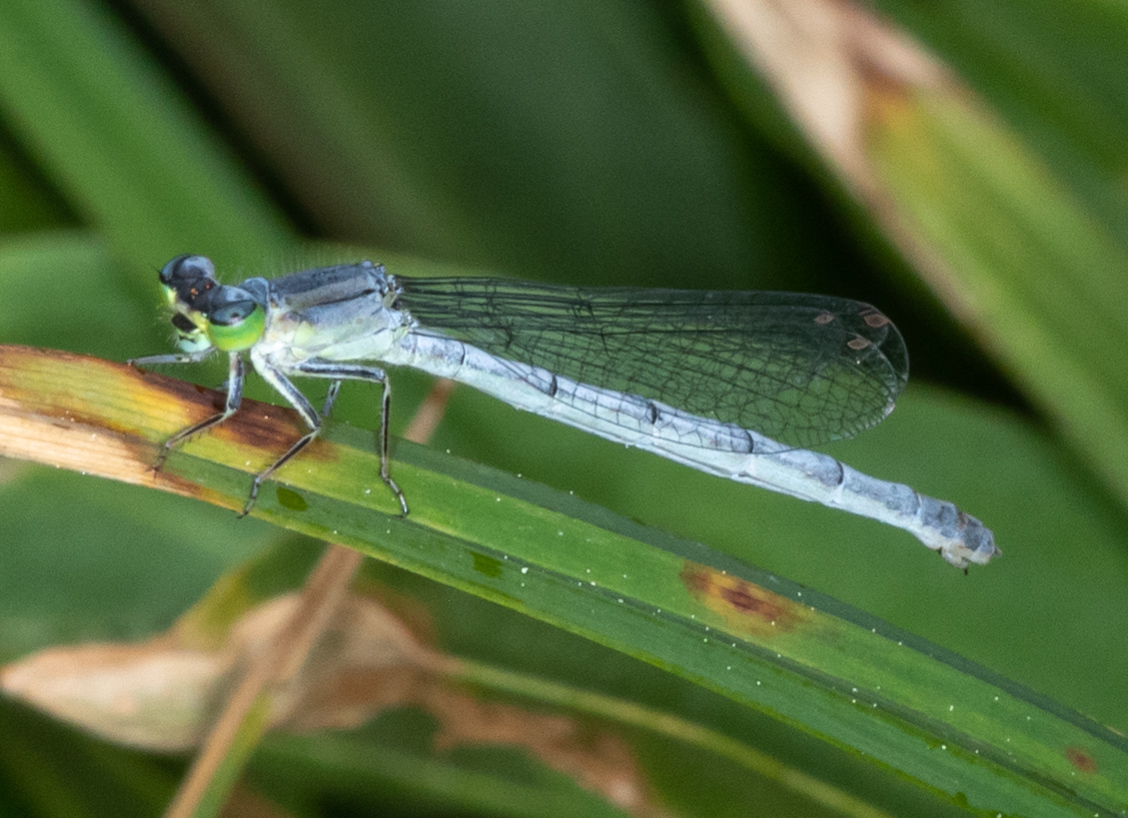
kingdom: Animalia
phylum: Arthropoda
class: Insecta
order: Odonata
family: Coenagrionidae
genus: Ischnura
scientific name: Ischnura perparva
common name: Western forktail
